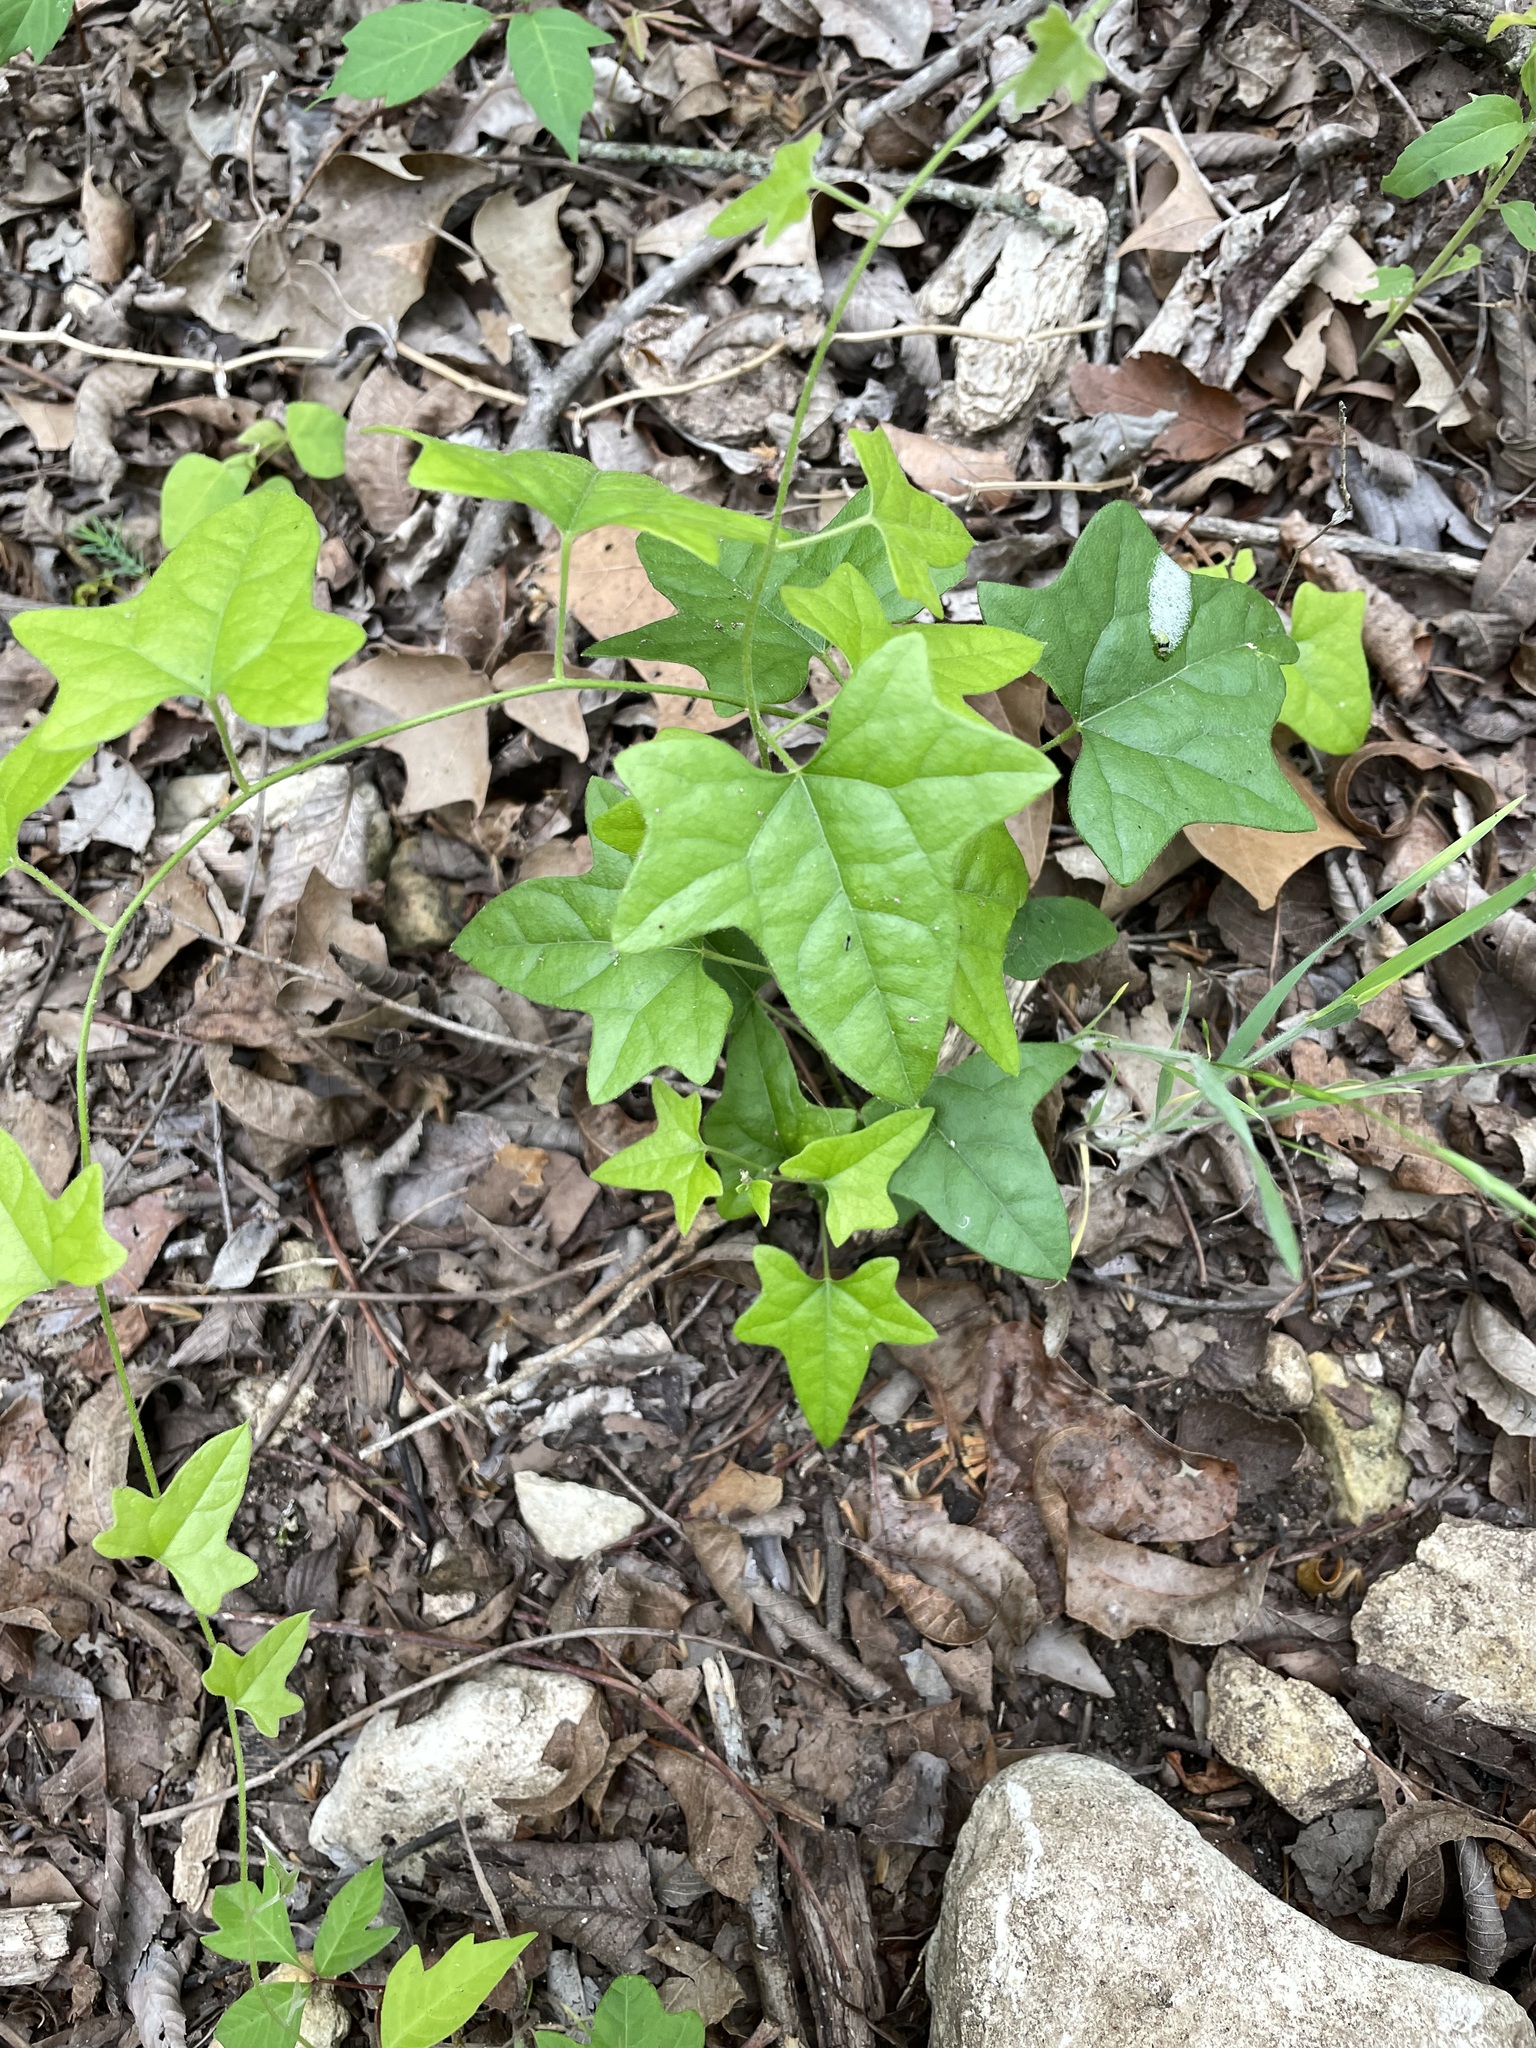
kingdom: Plantae
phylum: Tracheophyta
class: Magnoliopsida
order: Ranunculales
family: Menispermaceae
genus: Cocculus
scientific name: Cocculus carolinus
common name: Carolina moonseed
